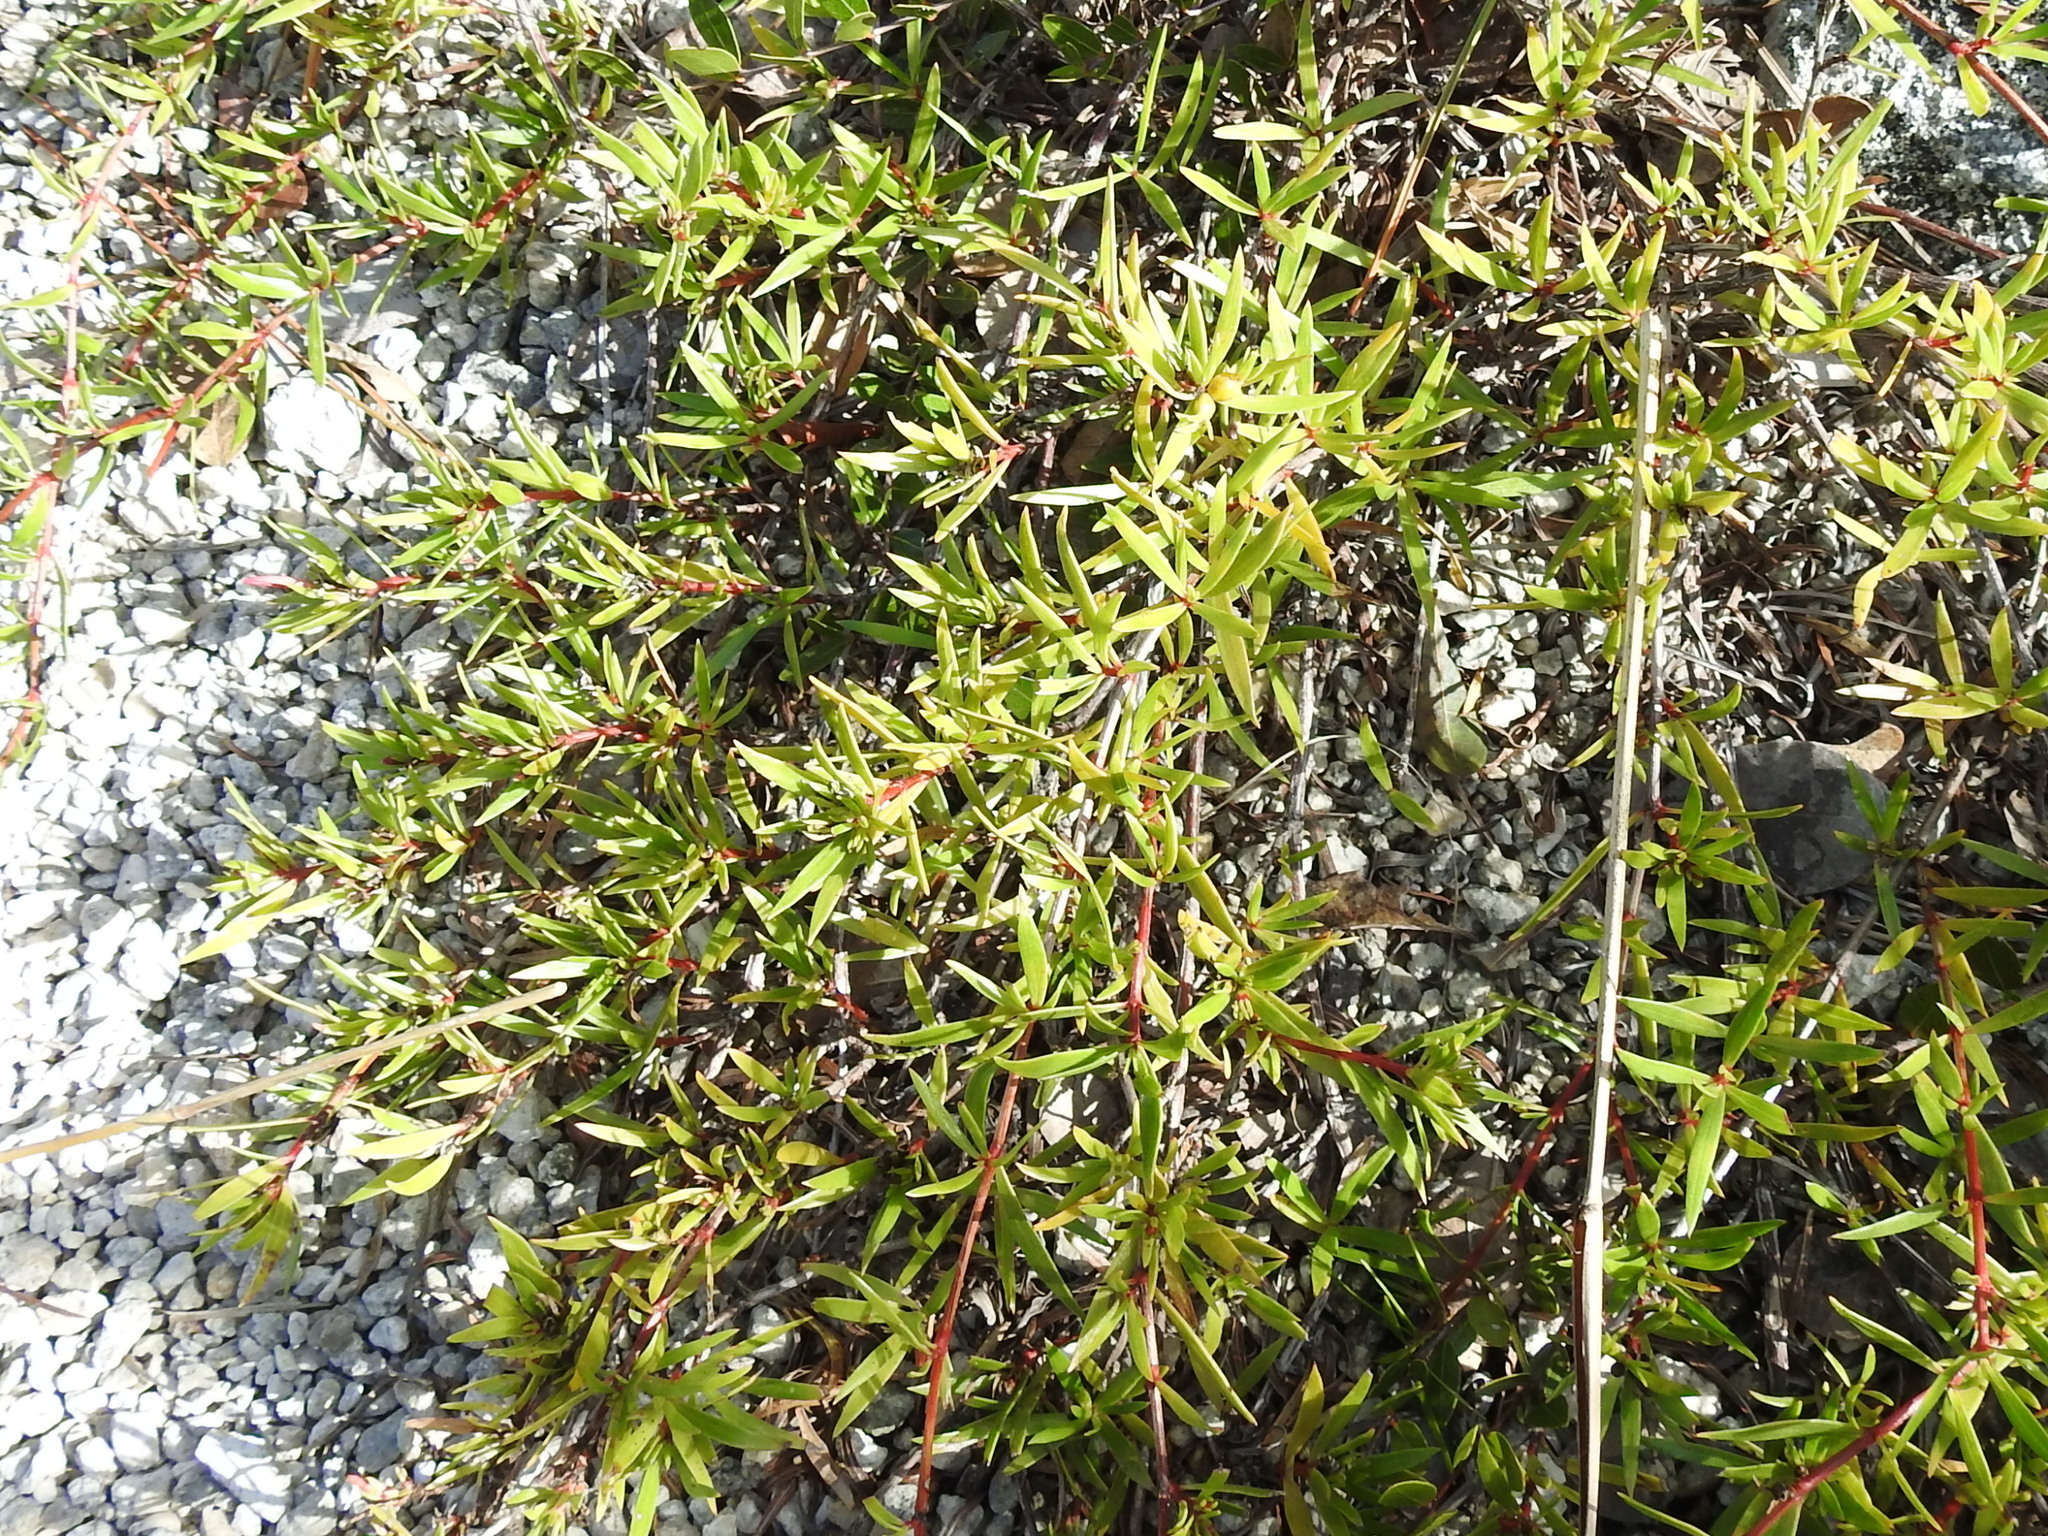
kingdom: Plantae
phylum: Tracheophyta
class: Magnoliopsida
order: Gentianales
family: Rubiaceae
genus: Ernodea
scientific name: Ernodea cokeri
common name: One-nerved ernodea
